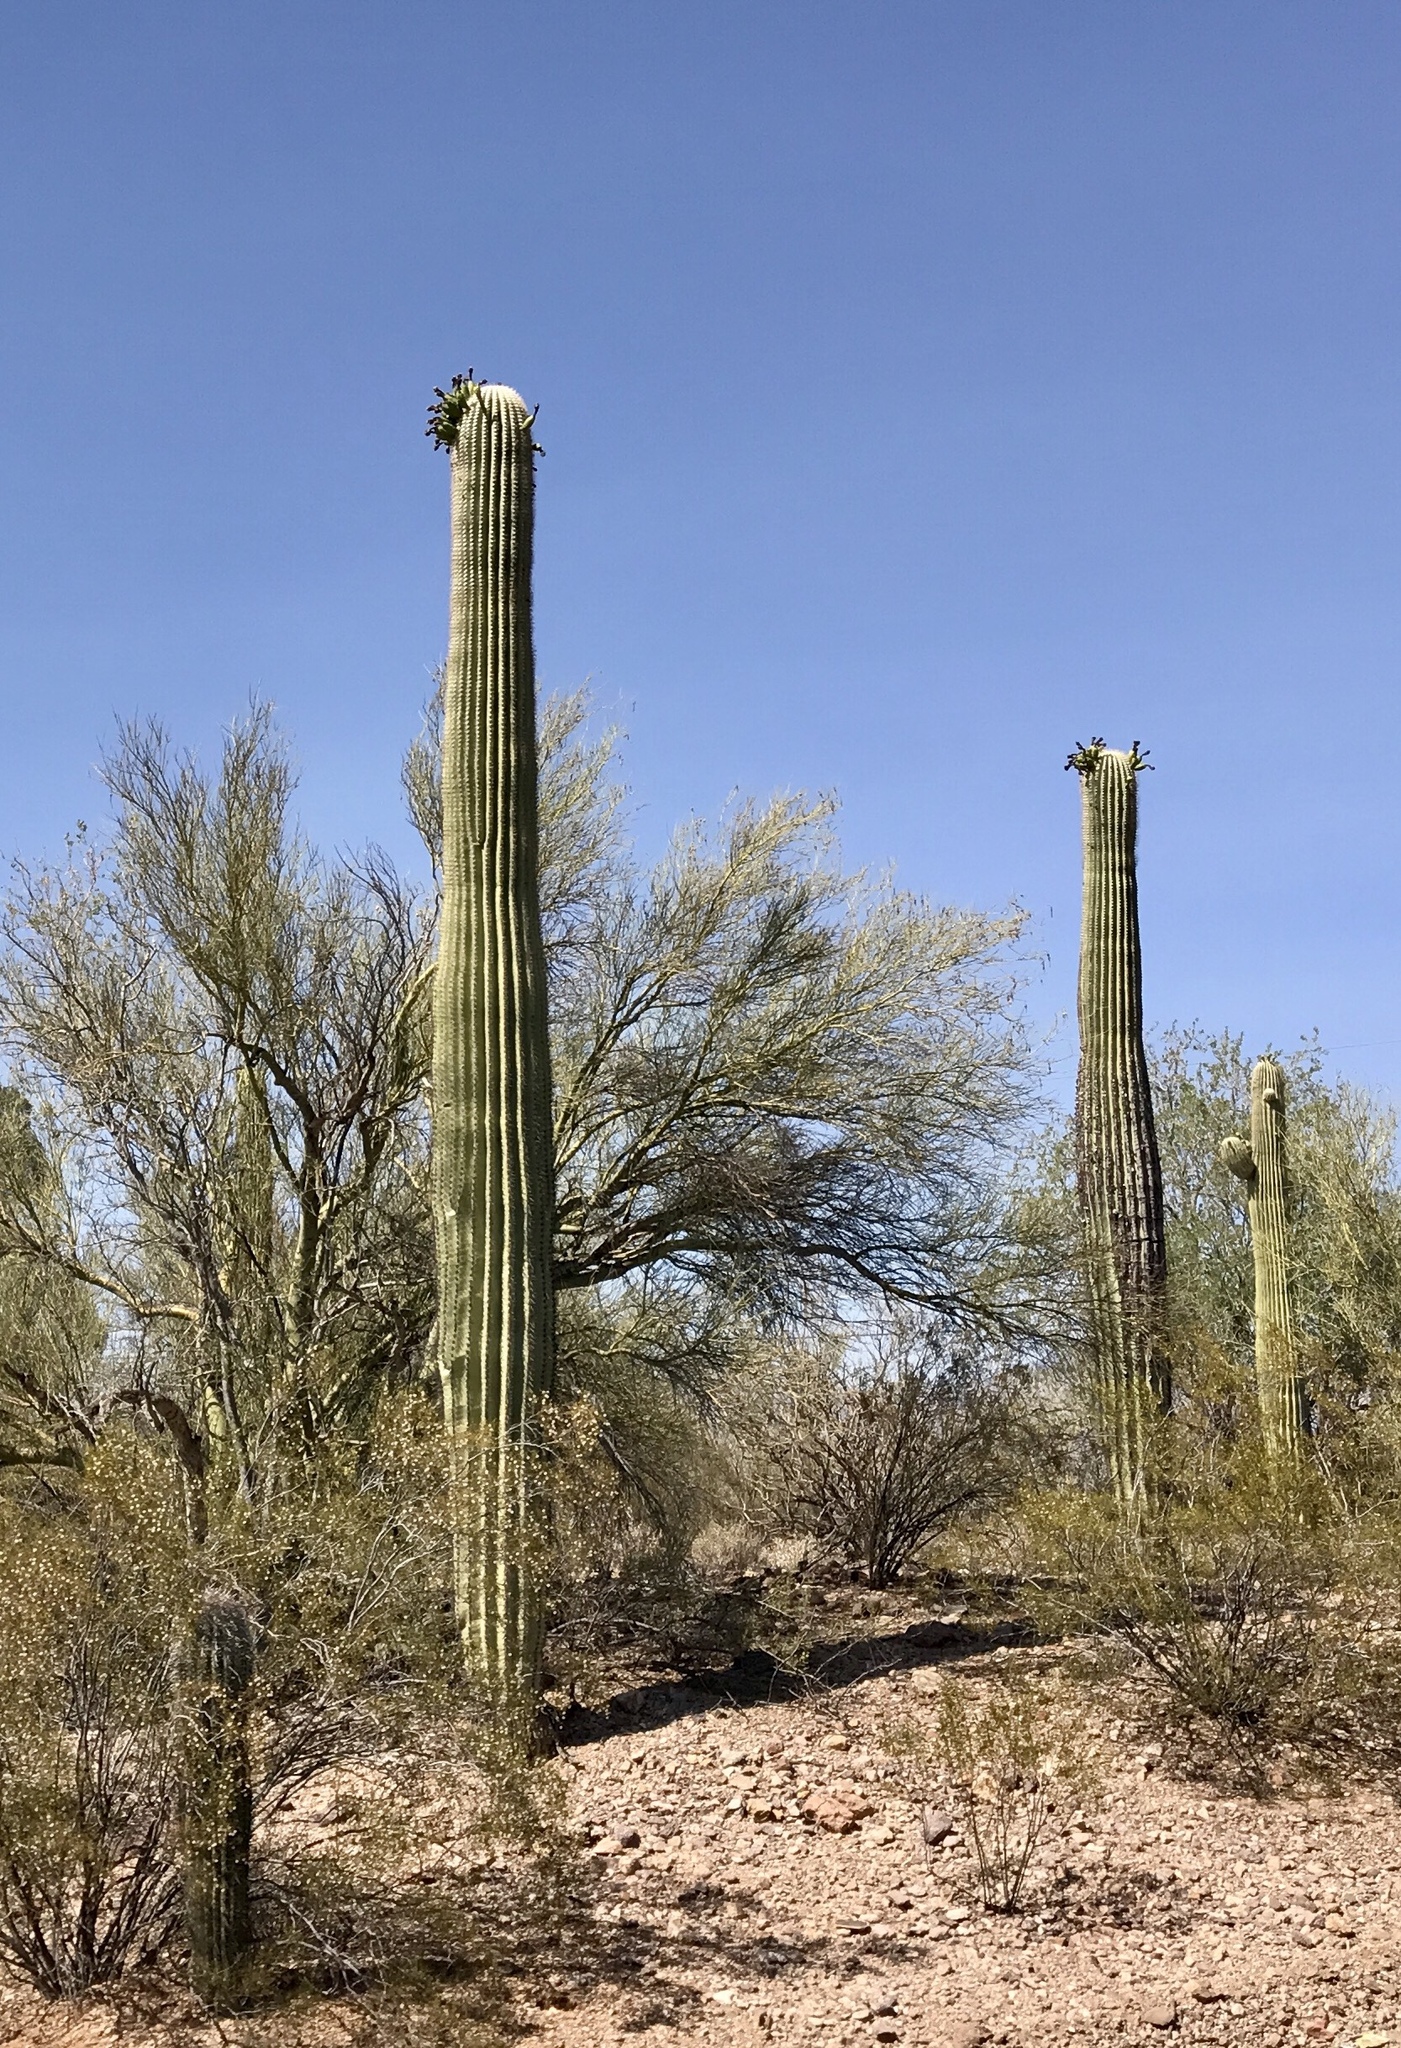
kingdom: Plantae
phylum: Tracheophyta
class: Magnoliopsida
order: Caryophyllales
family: Cactaceae
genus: Carnegiea
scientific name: Carnegiea gigantea
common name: Saguaro
